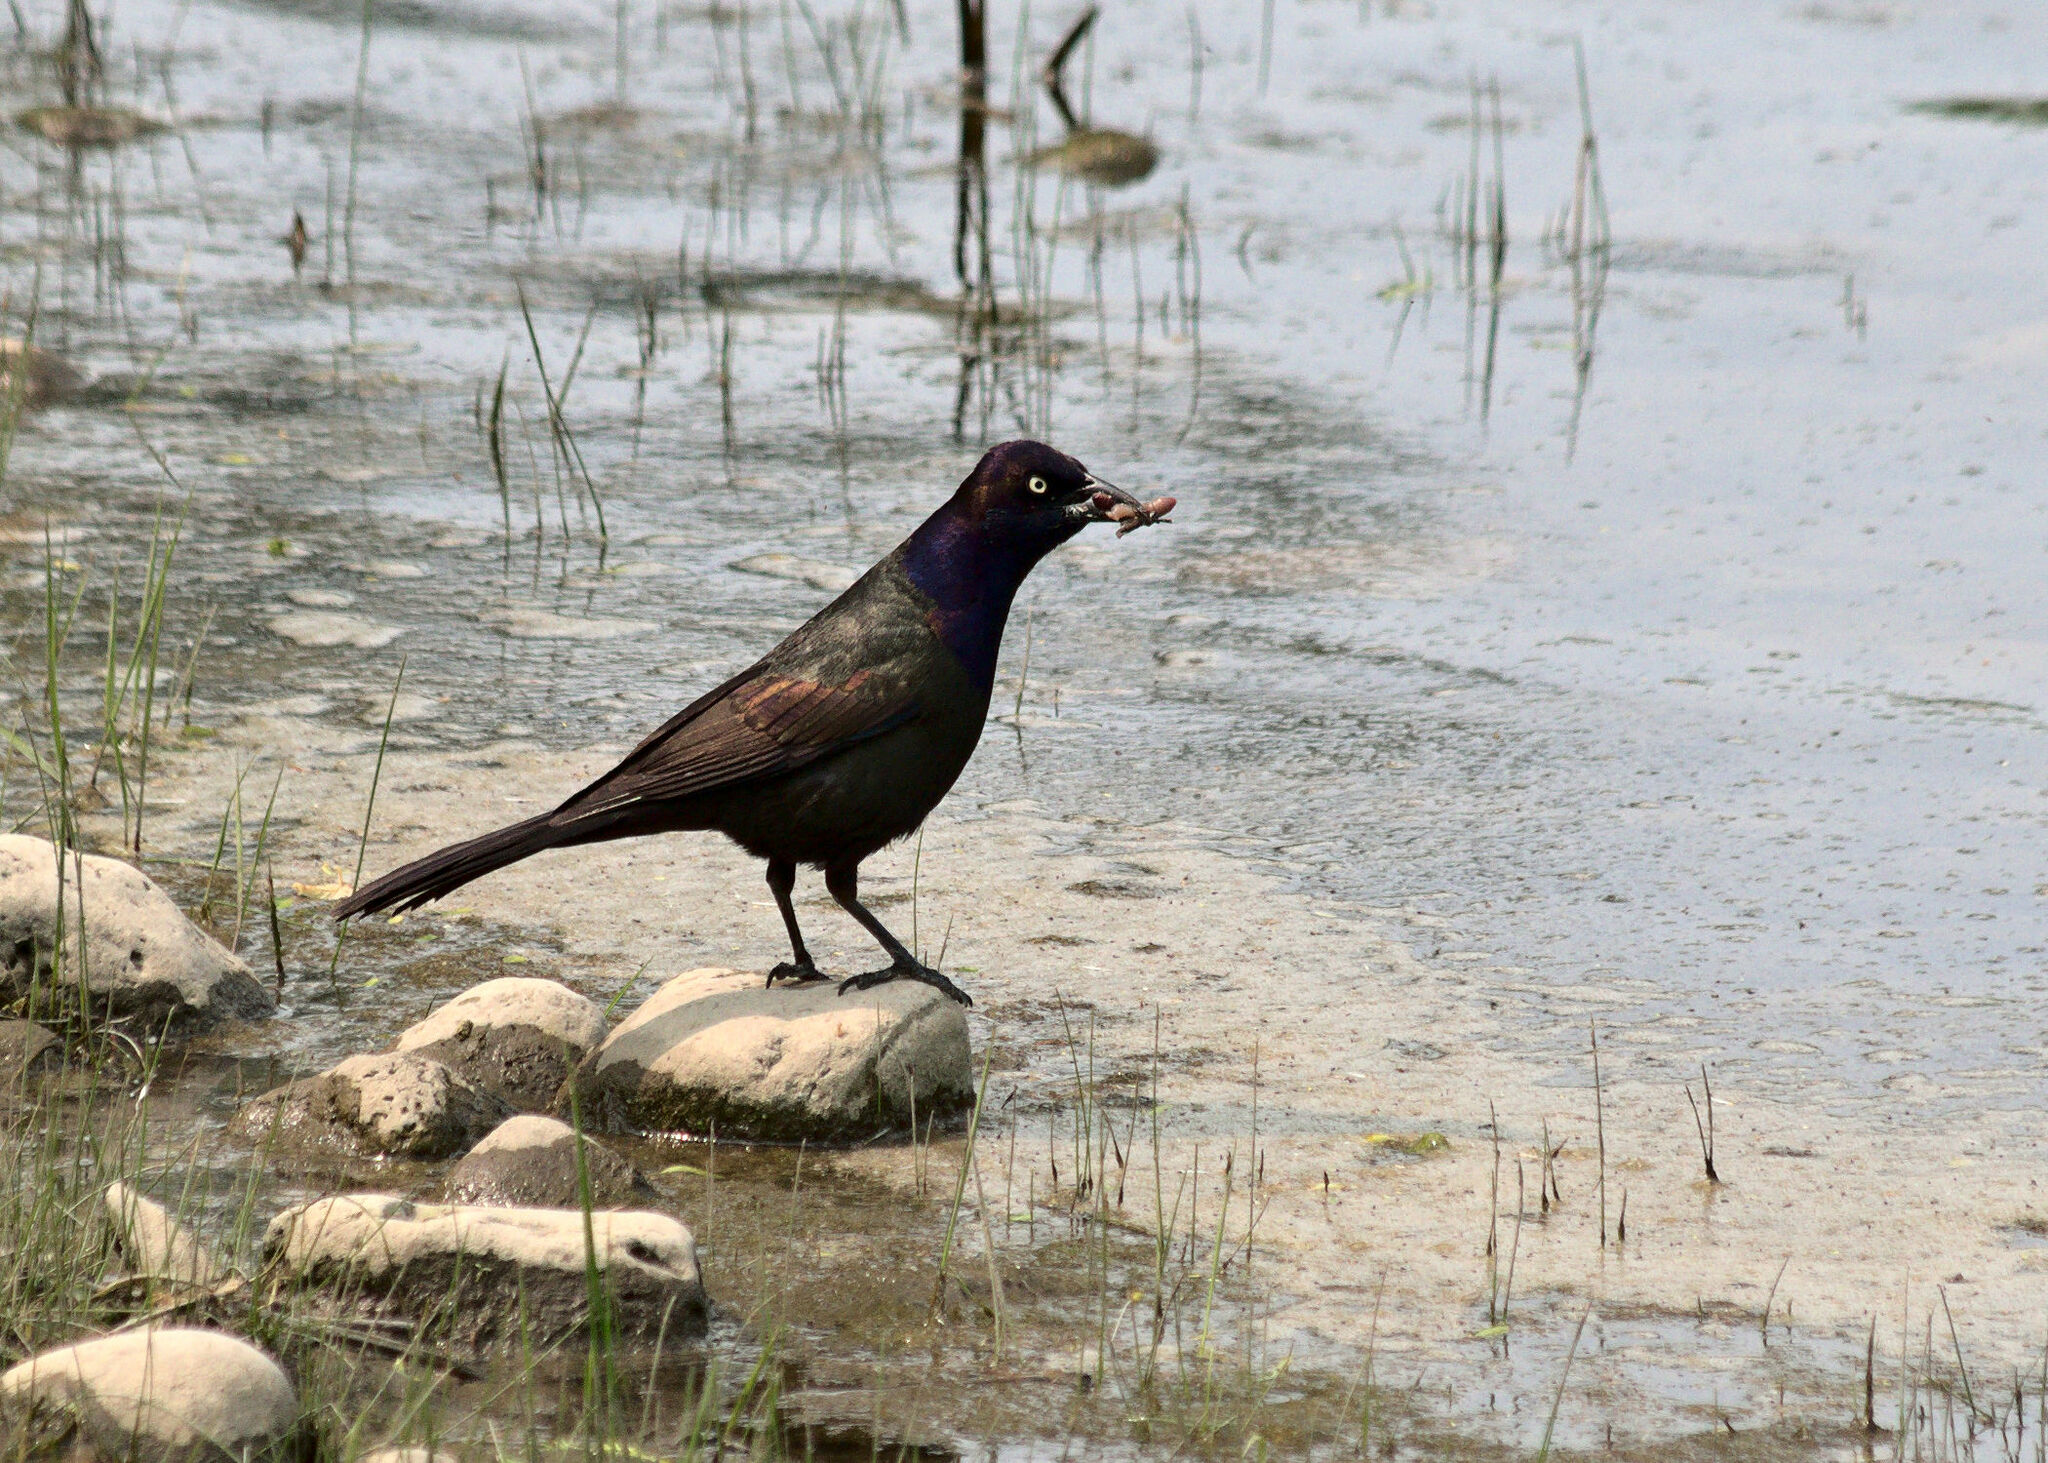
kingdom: Animalia
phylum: Chordata
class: Aves
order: Passeriformes
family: Icteridae
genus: Quiscalus
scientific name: Quiscalus quiscula
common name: Common grackle
